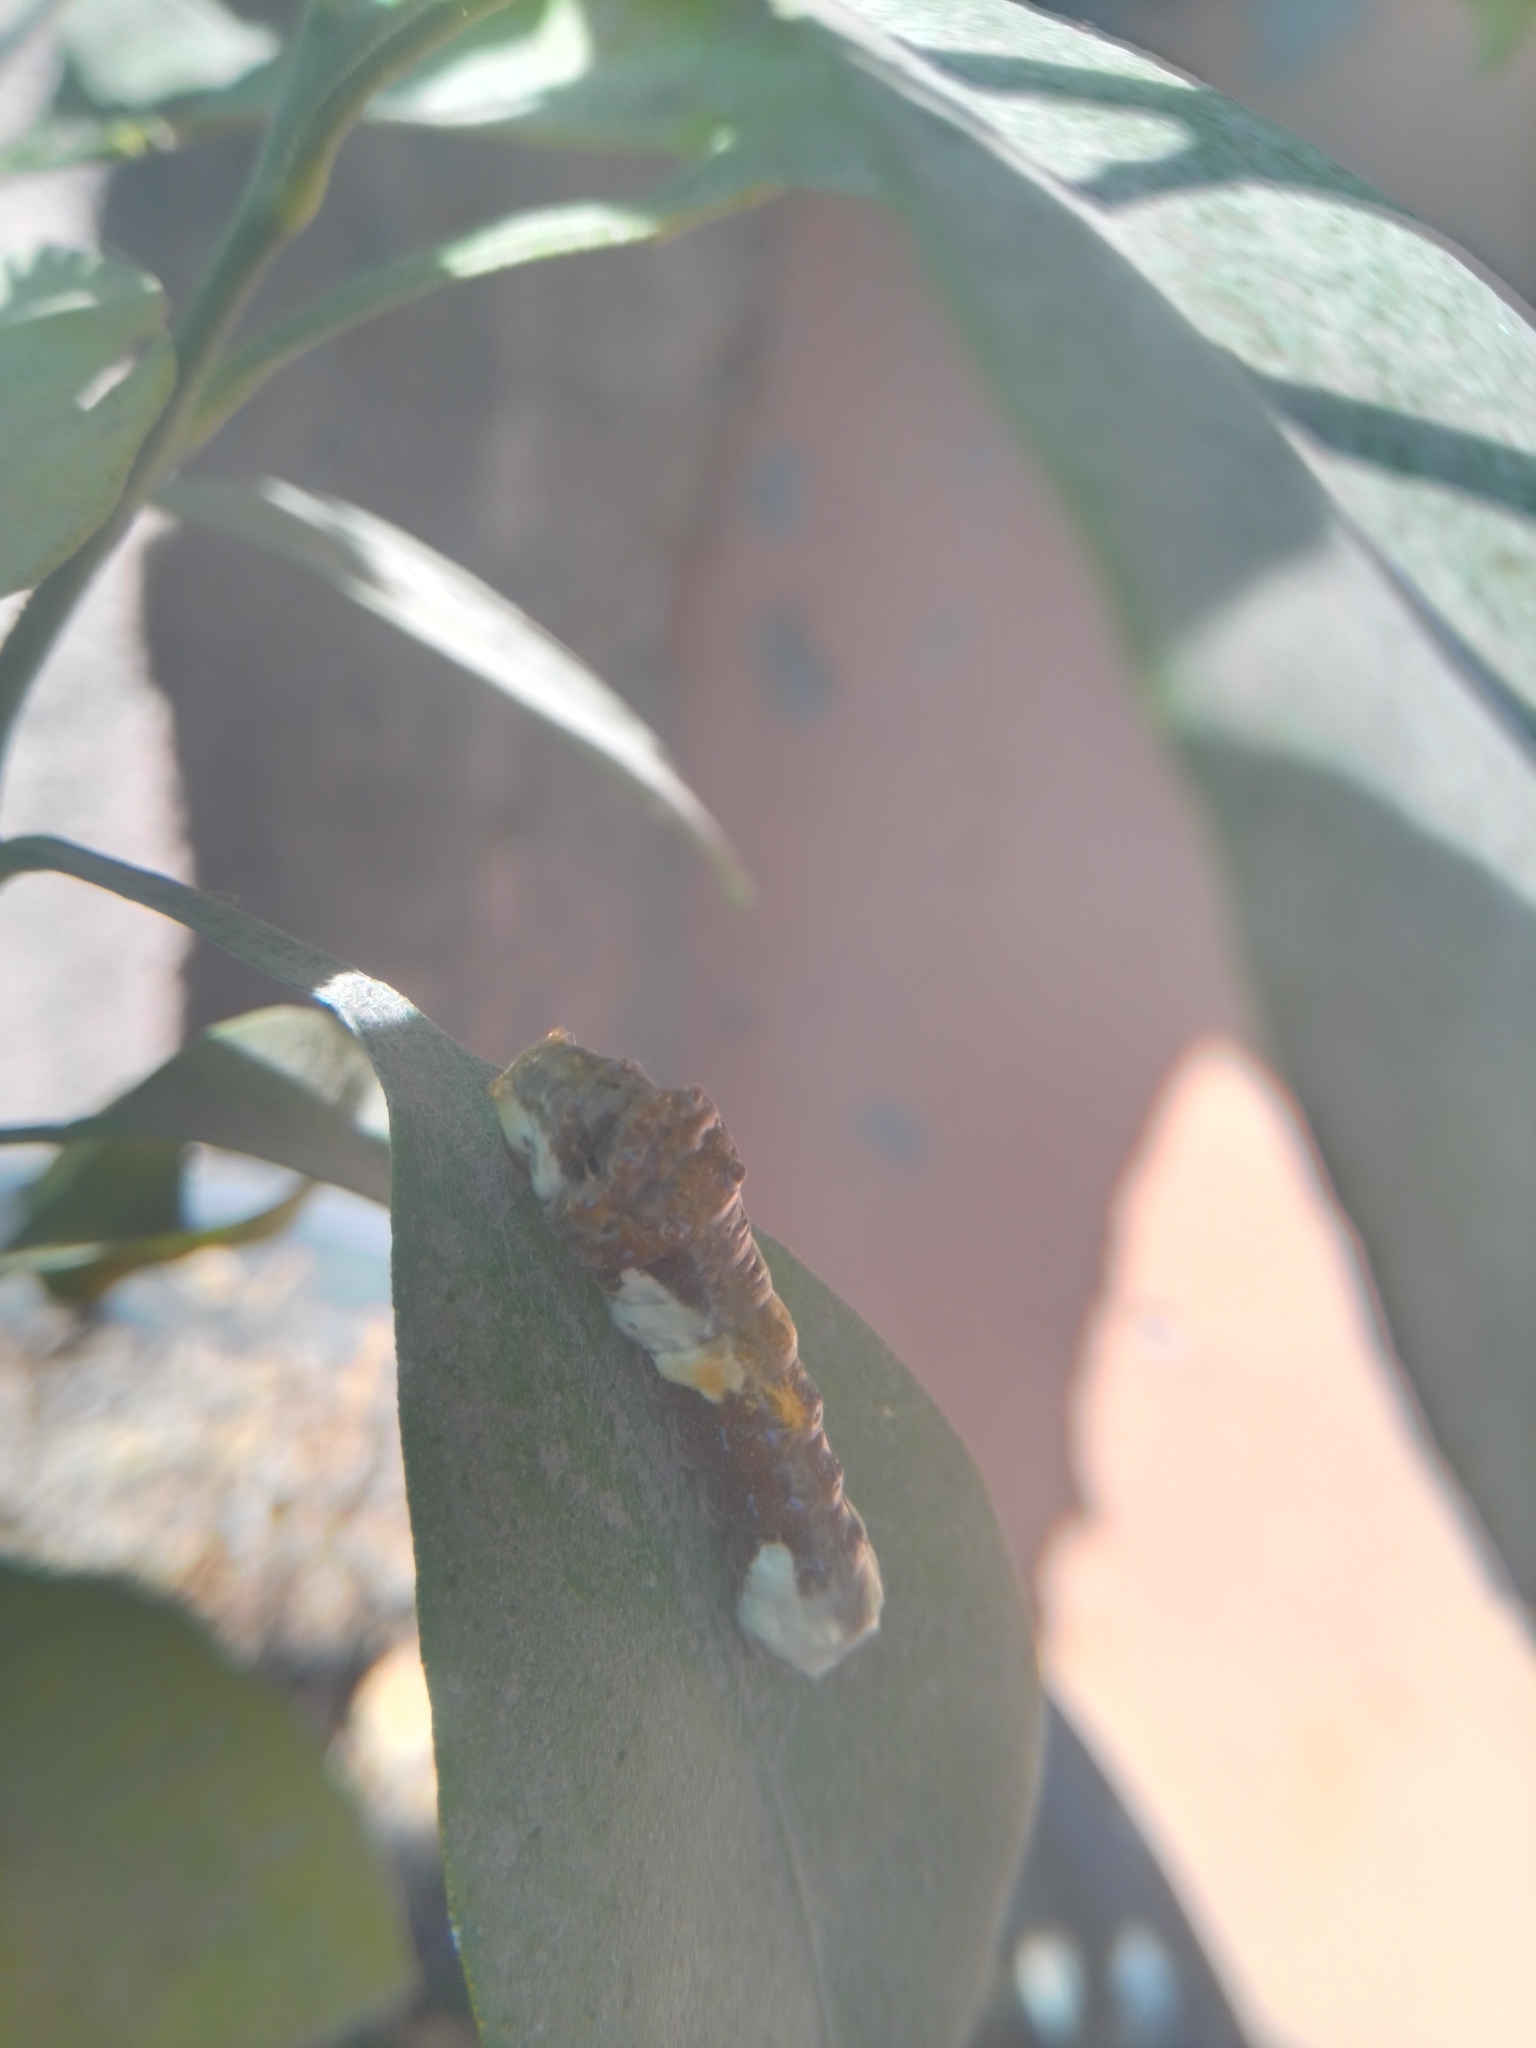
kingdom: Animalia
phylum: Arthropoda
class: Insecta
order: Lepidoptera
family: Papilionidae
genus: Papilio
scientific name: Papilio rumiko
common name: Western giant swallowtail
